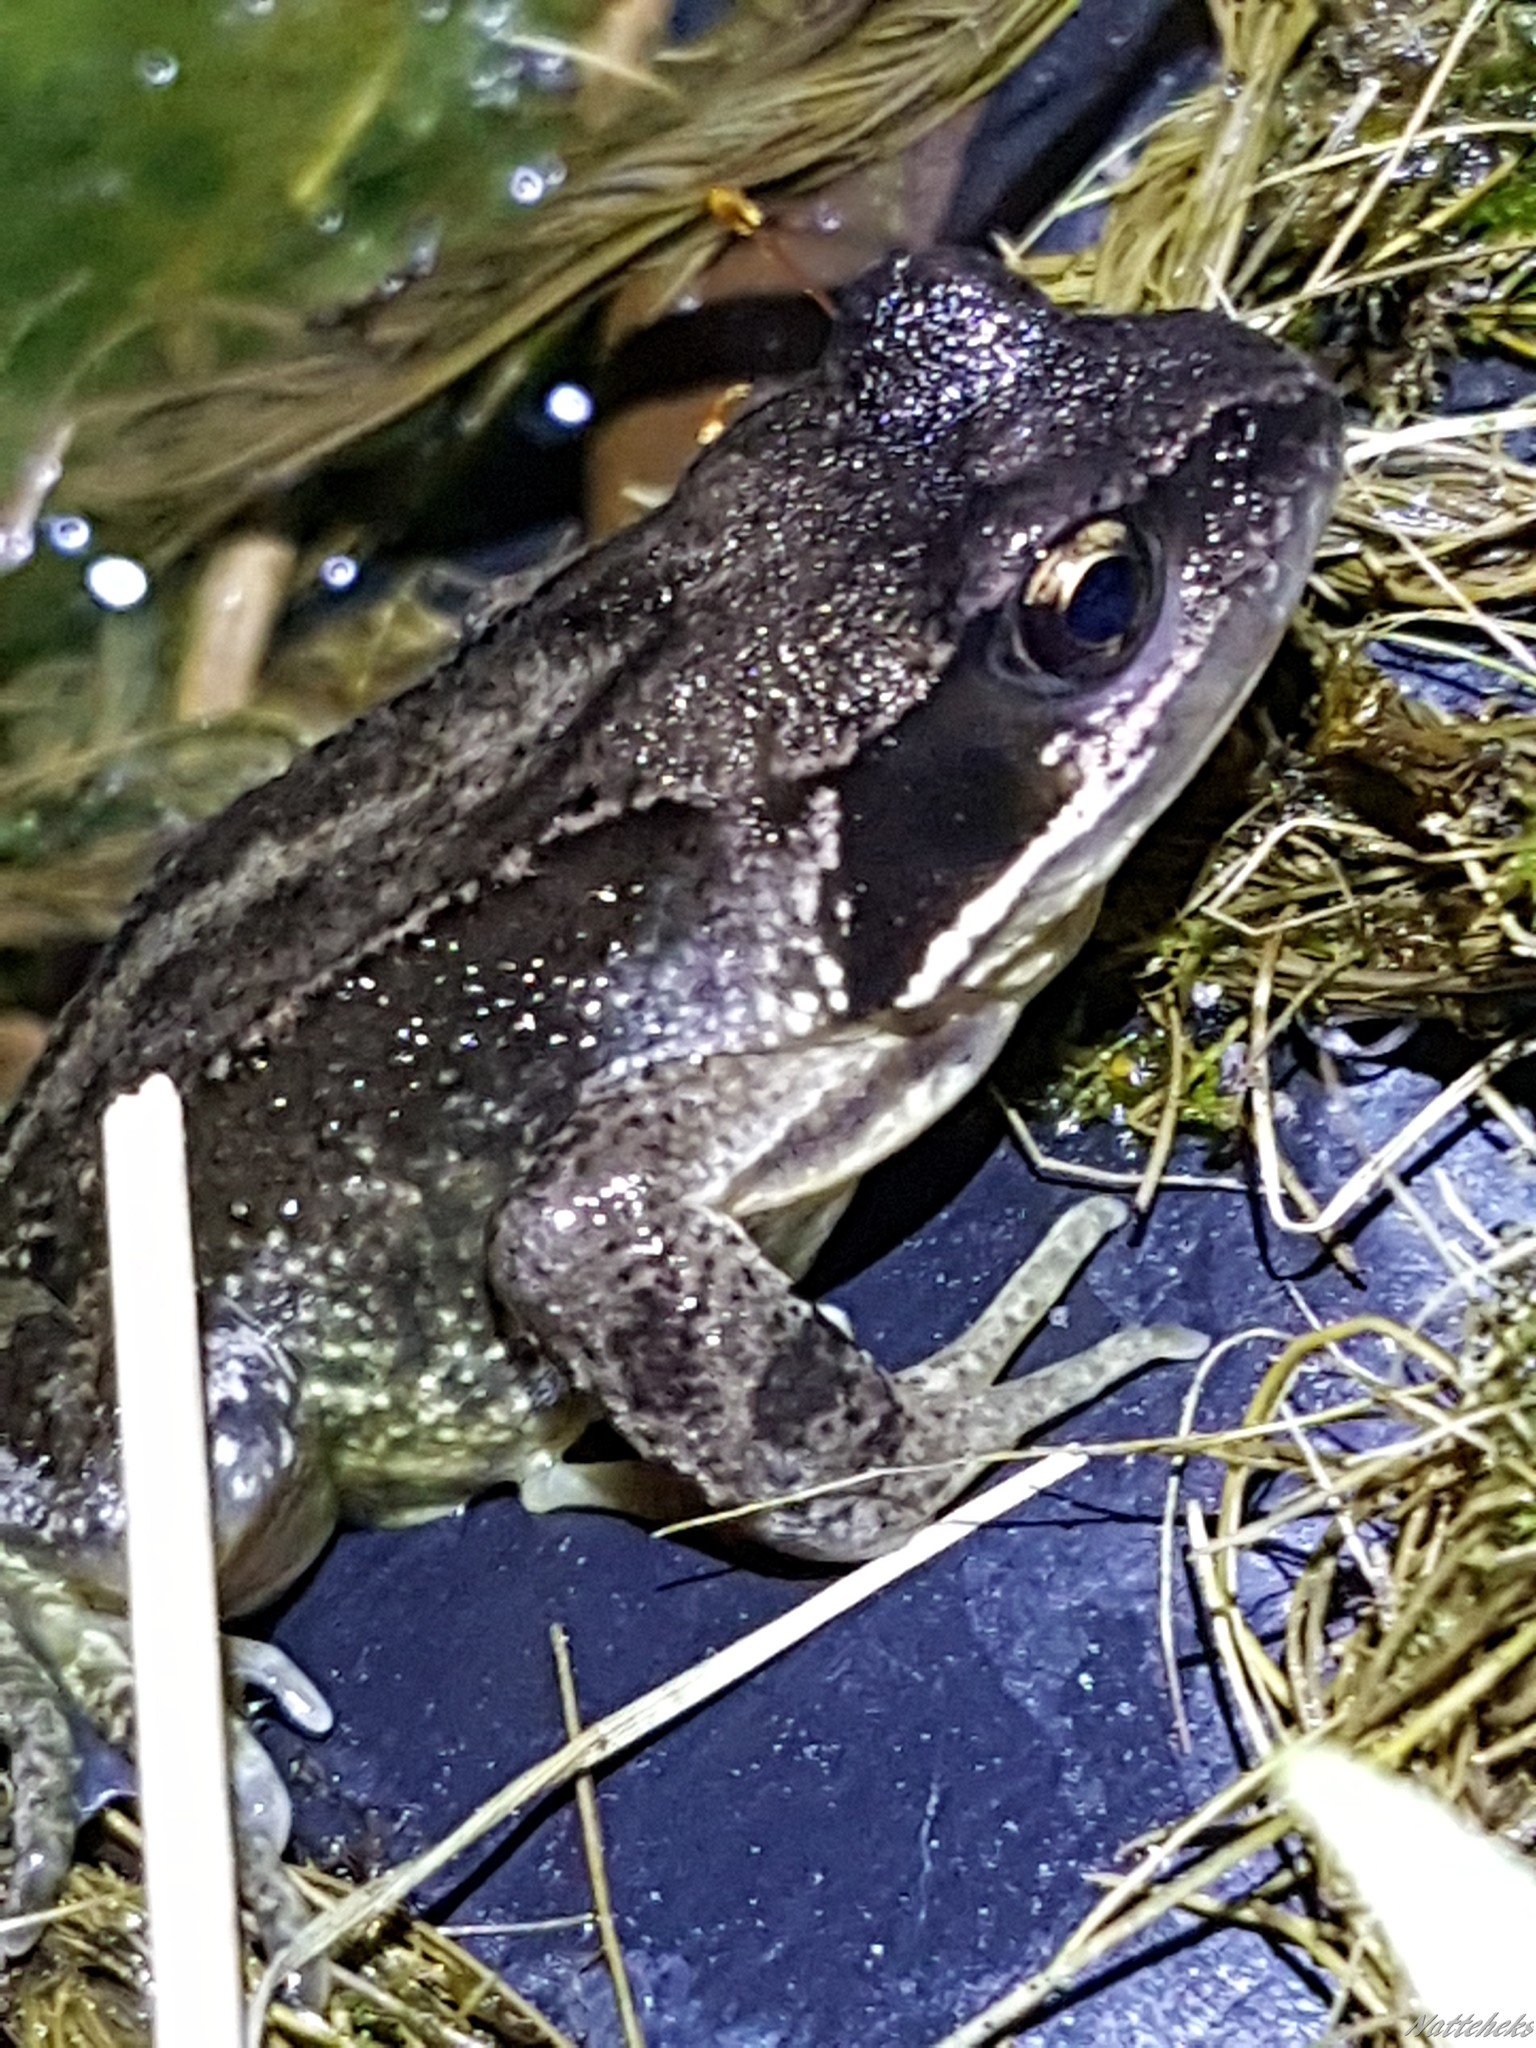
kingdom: Animalia
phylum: Chordata
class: Amphibia
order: Anura
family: Ranidae
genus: Rana
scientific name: Rana temporaria
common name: Common frog
